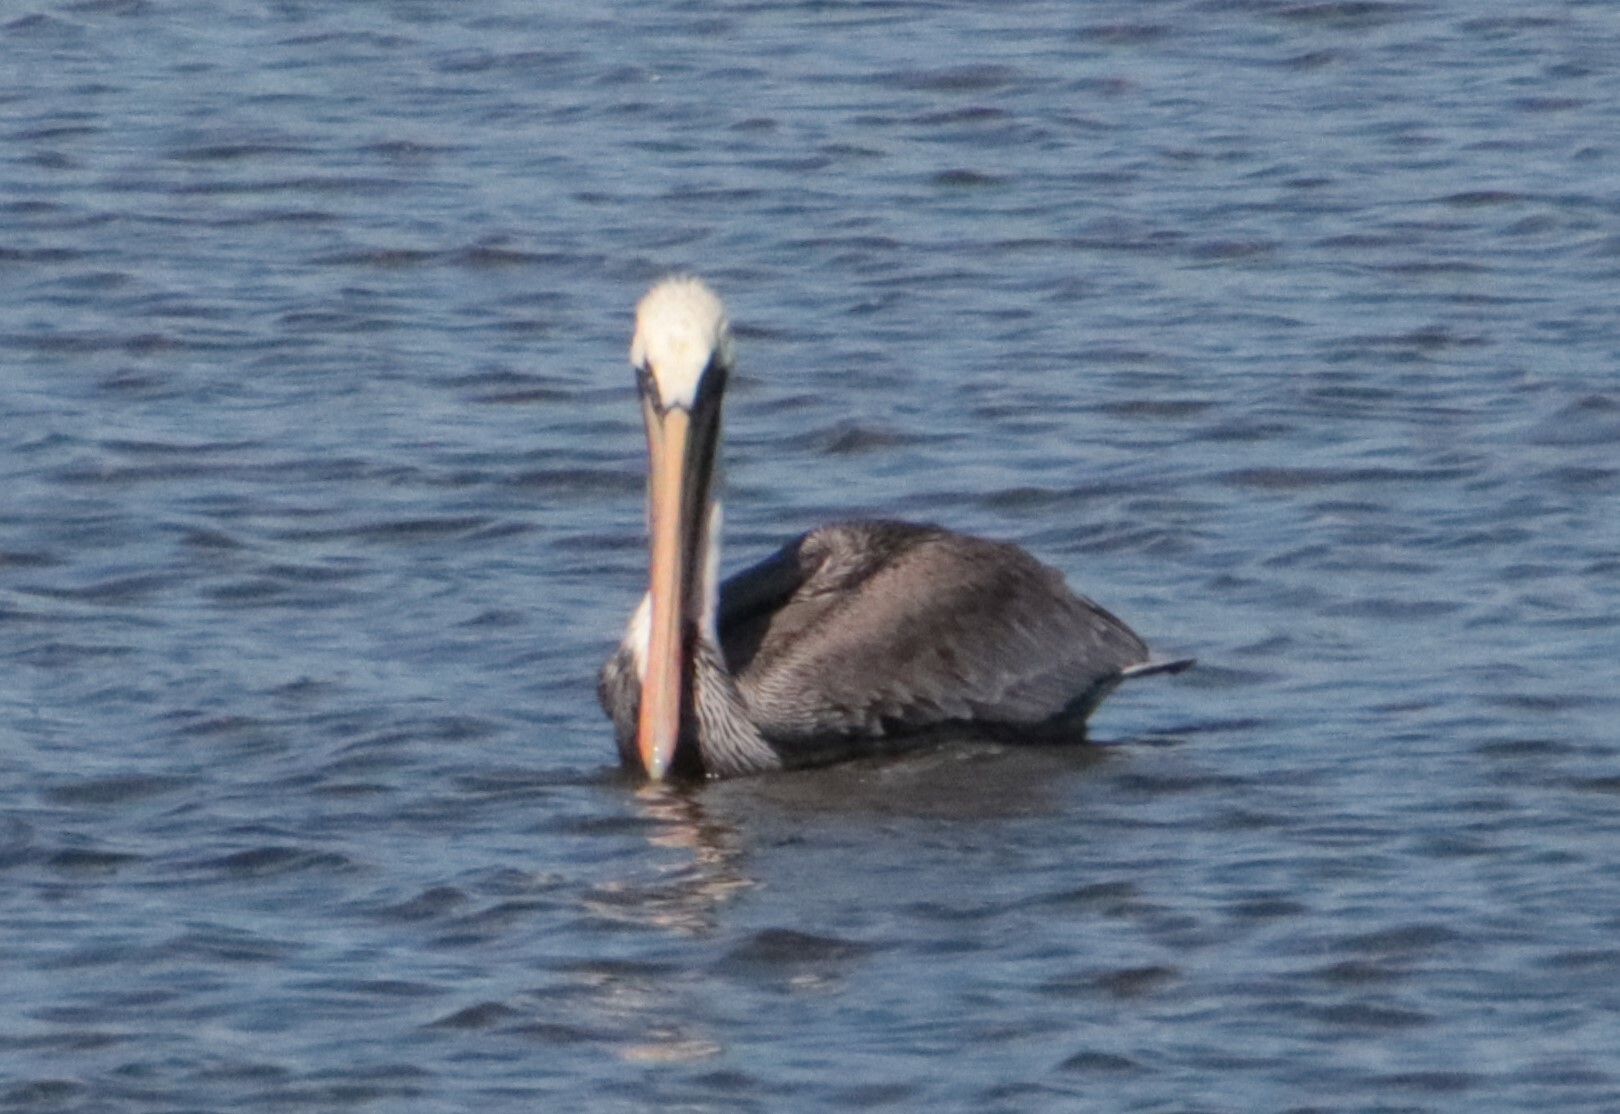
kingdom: Animalia
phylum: Chordata
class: Aves
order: Pelecaniformes
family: Pelecanidae
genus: Pelecanus
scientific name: Pelecanus occidentalis
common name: Brown pelican
